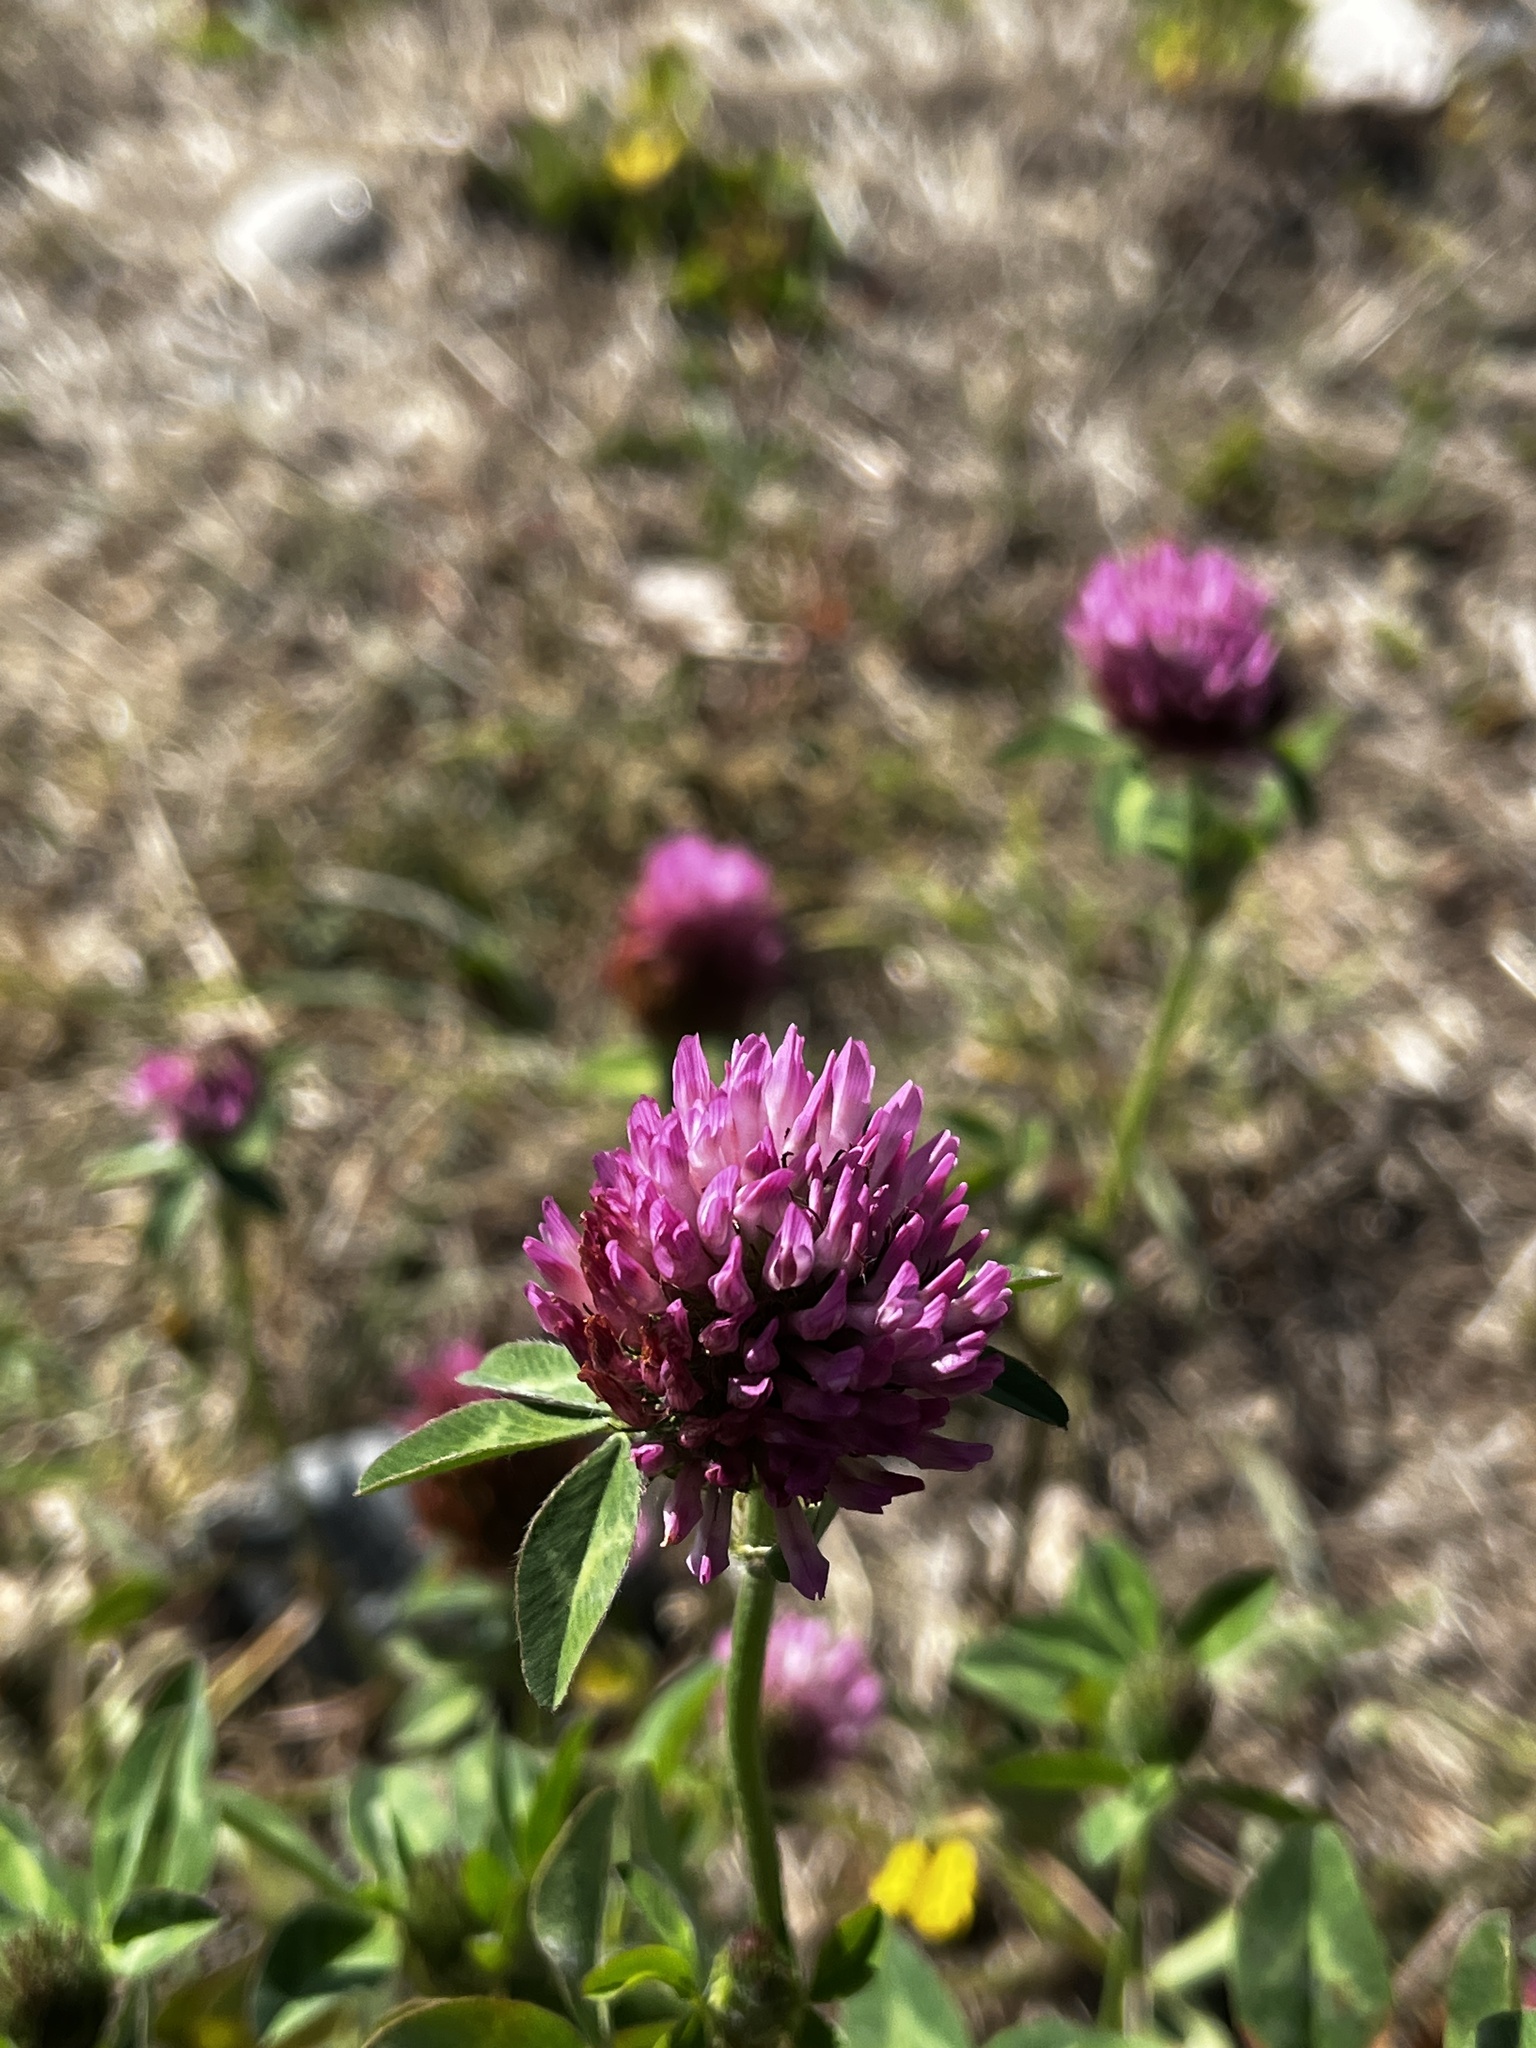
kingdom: Plantae
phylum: Tracheophyta
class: Magnoliopsida
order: Fabales
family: Fabaceae
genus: Trifolium
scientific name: Trifolium pratense
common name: Red clover
